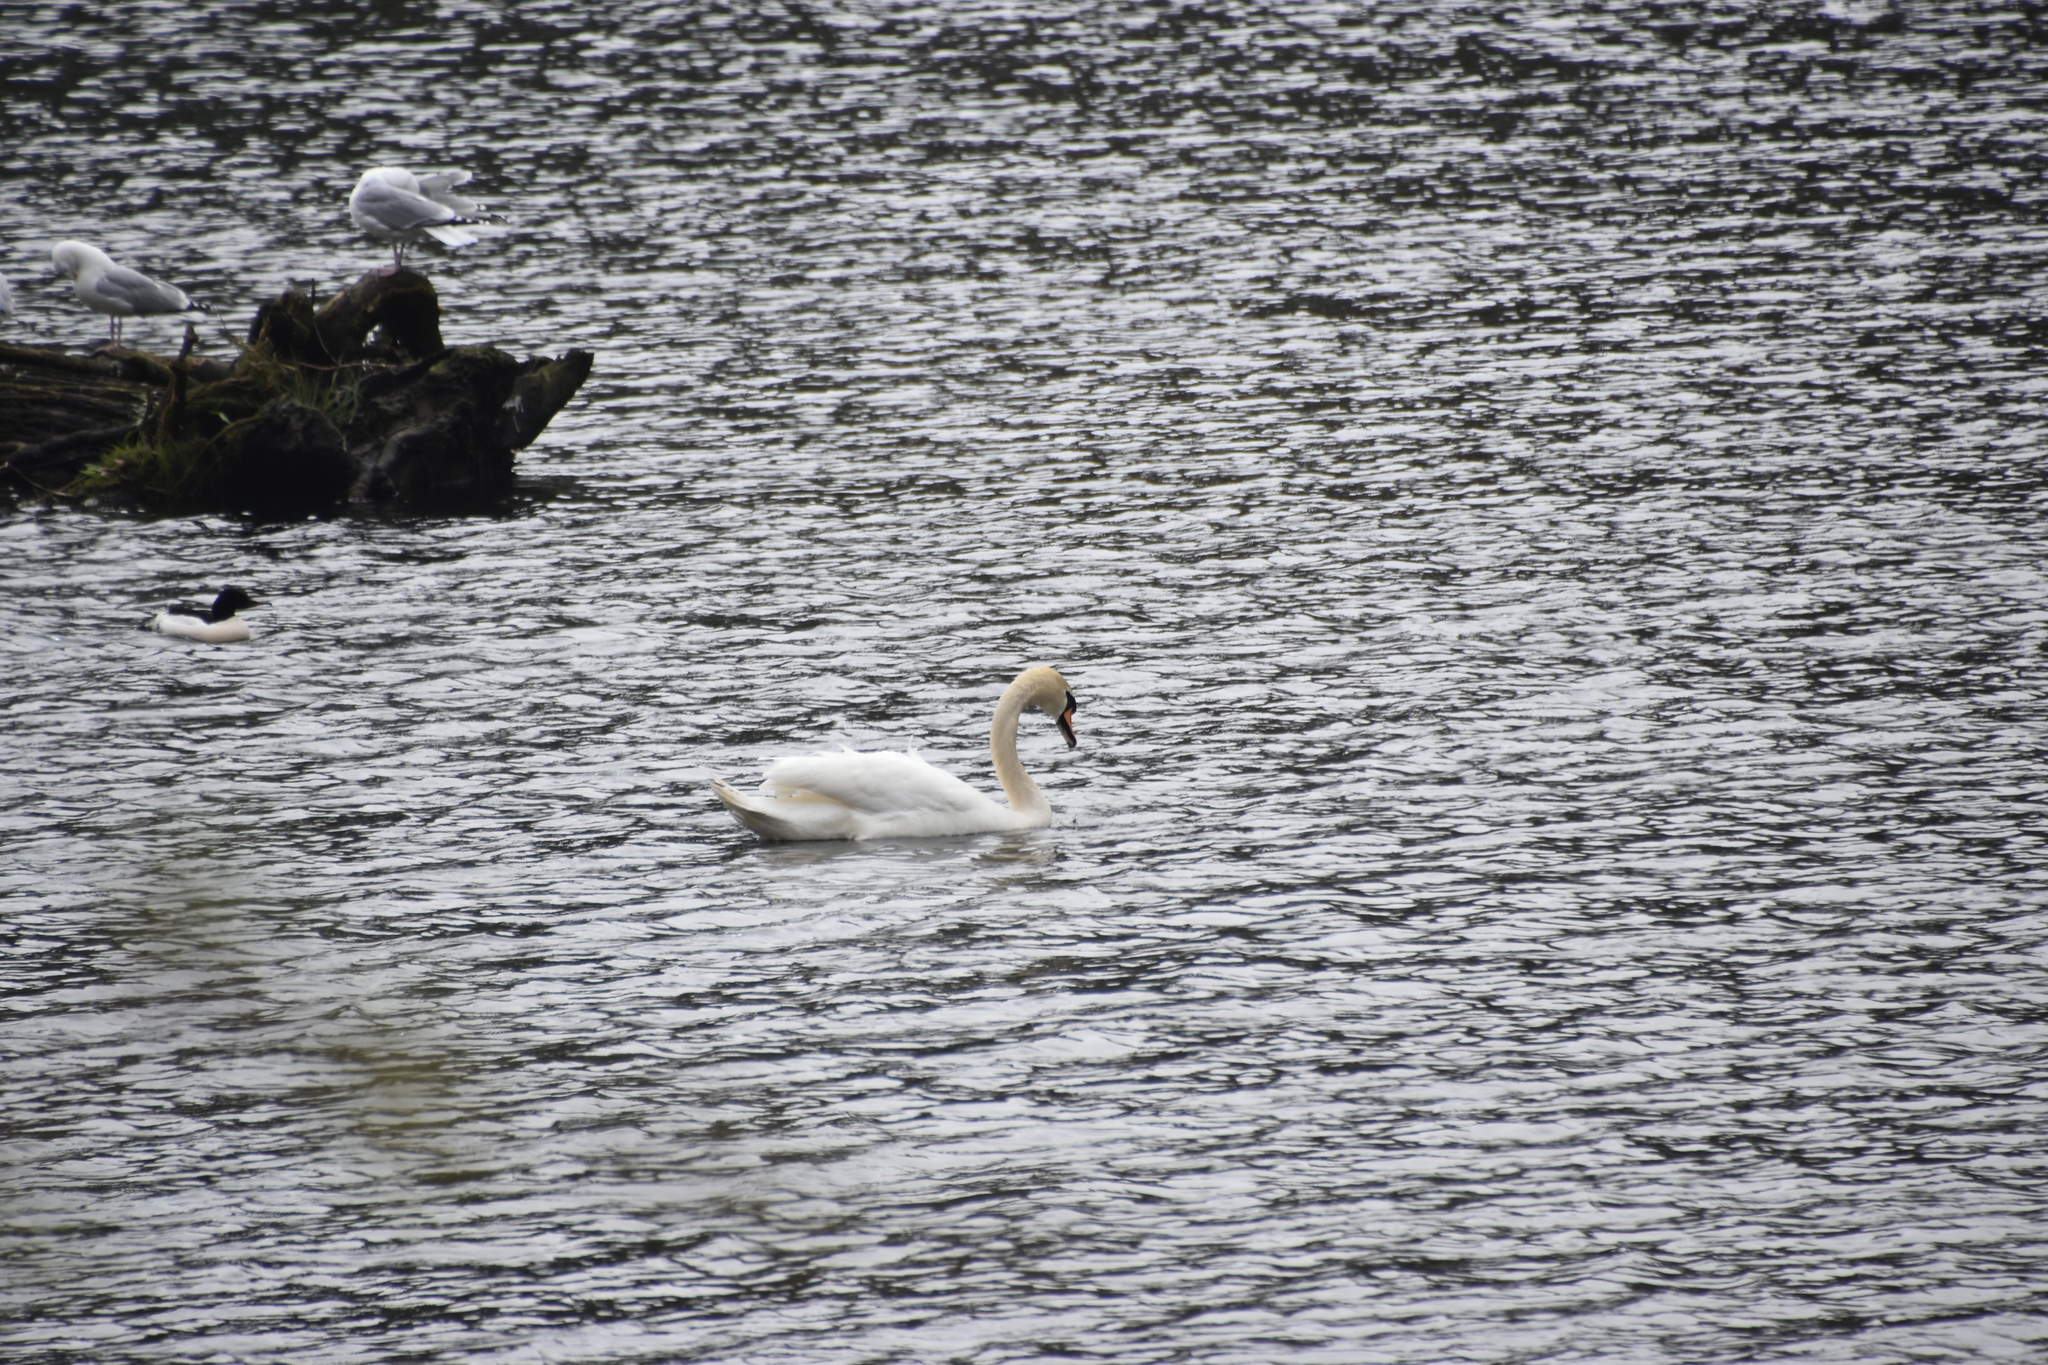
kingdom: Animalia
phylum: Chordata
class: Aves
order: Anseriformes
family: Anatidae
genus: Cygnus
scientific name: Cygnus olor
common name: Mute swan
